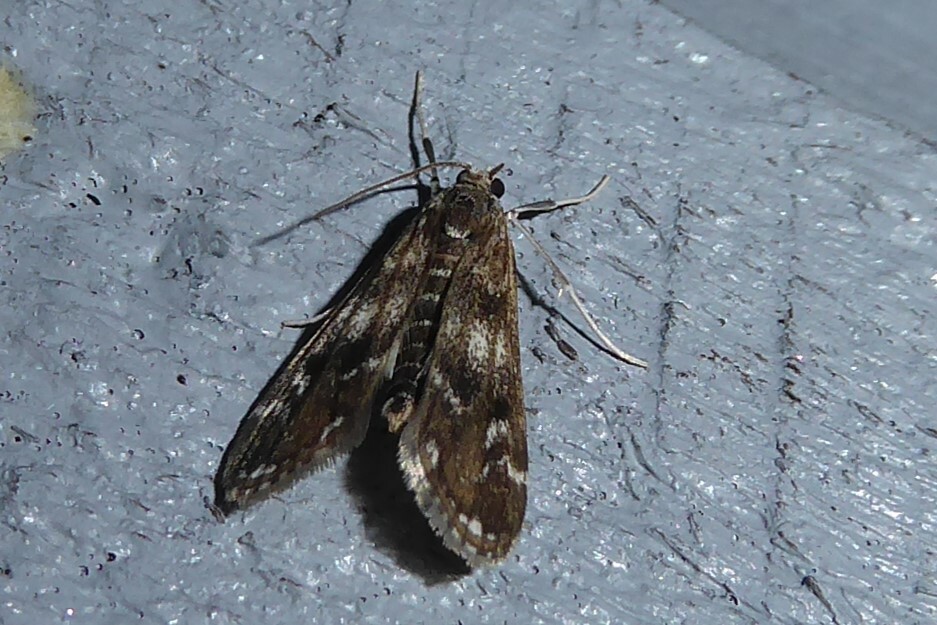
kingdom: Animalia
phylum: Arthropoda
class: Insecta
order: Lepidoptera
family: Crambidae
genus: Hygraula
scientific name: Hygraula nitens
